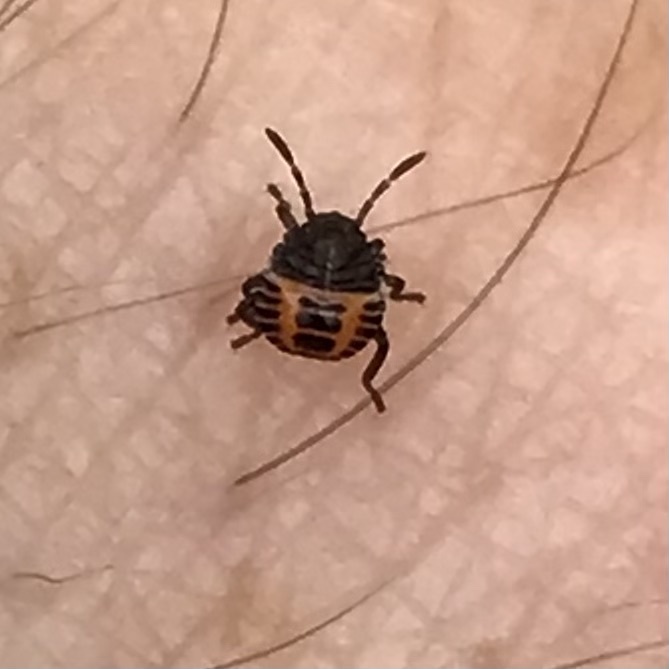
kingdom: Animalia
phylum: Arthropoda
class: Insecta
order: Hemiptera
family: Pentatomidae
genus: Halyomorpha
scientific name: Halyomorpha halys
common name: Brown marmorated stink bug
